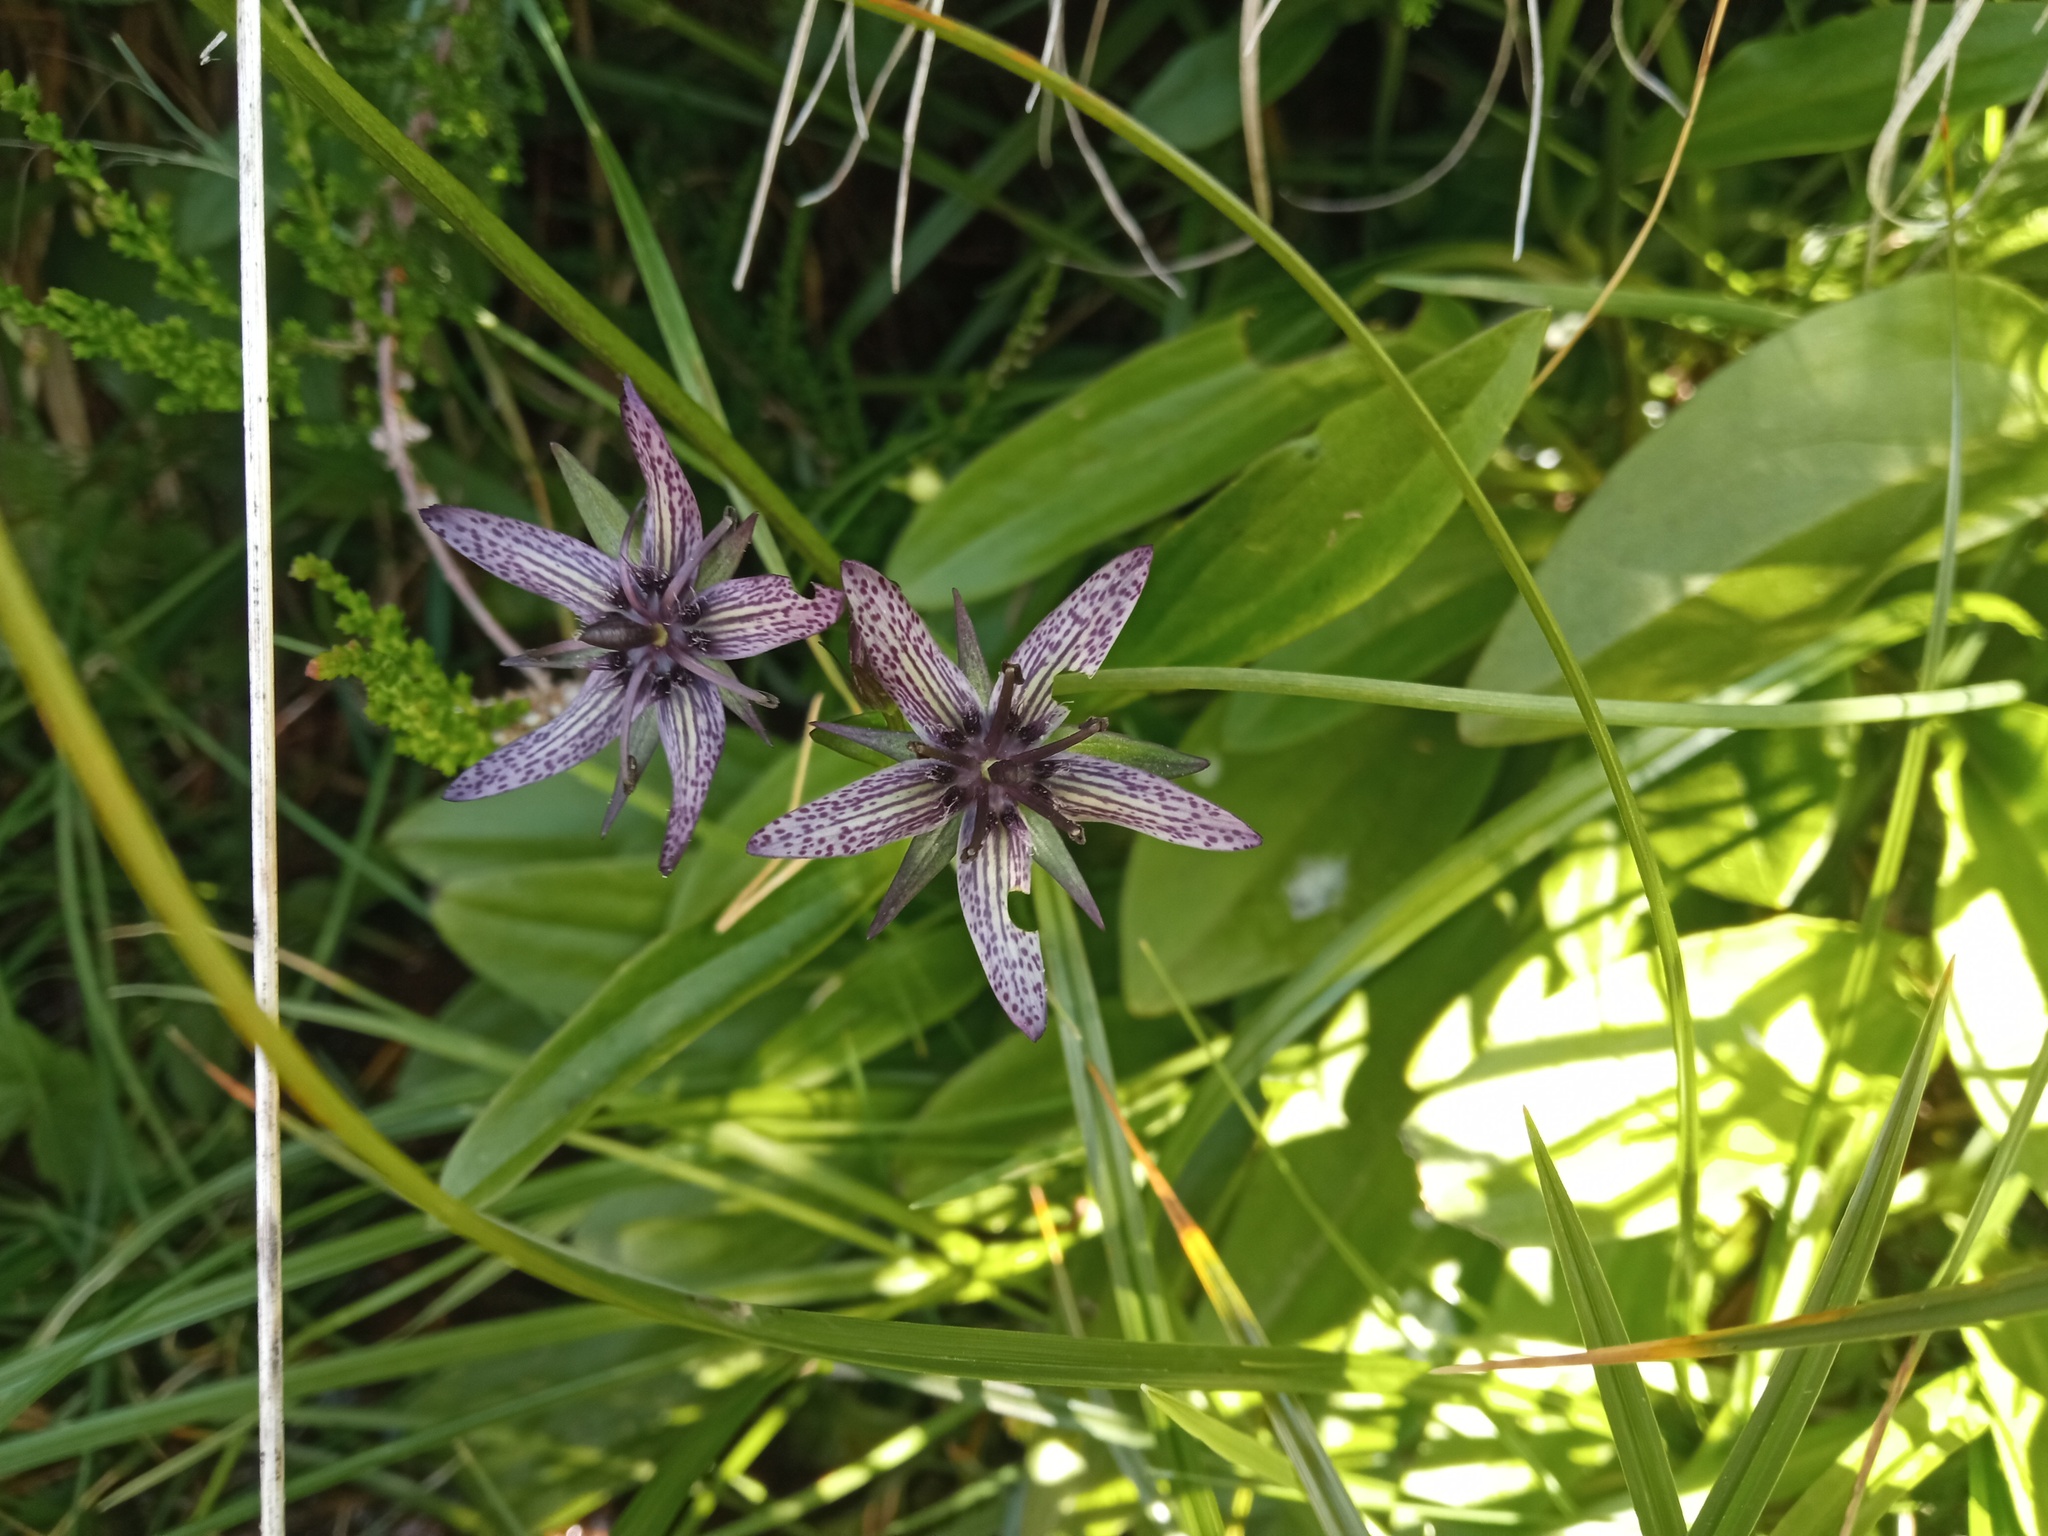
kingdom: Plantae
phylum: Tracheophyta
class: Magnoliopsida
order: Gentianales
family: Gentianaceae
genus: Swertia
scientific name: Swertia perennis
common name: Alpine bog swertia
